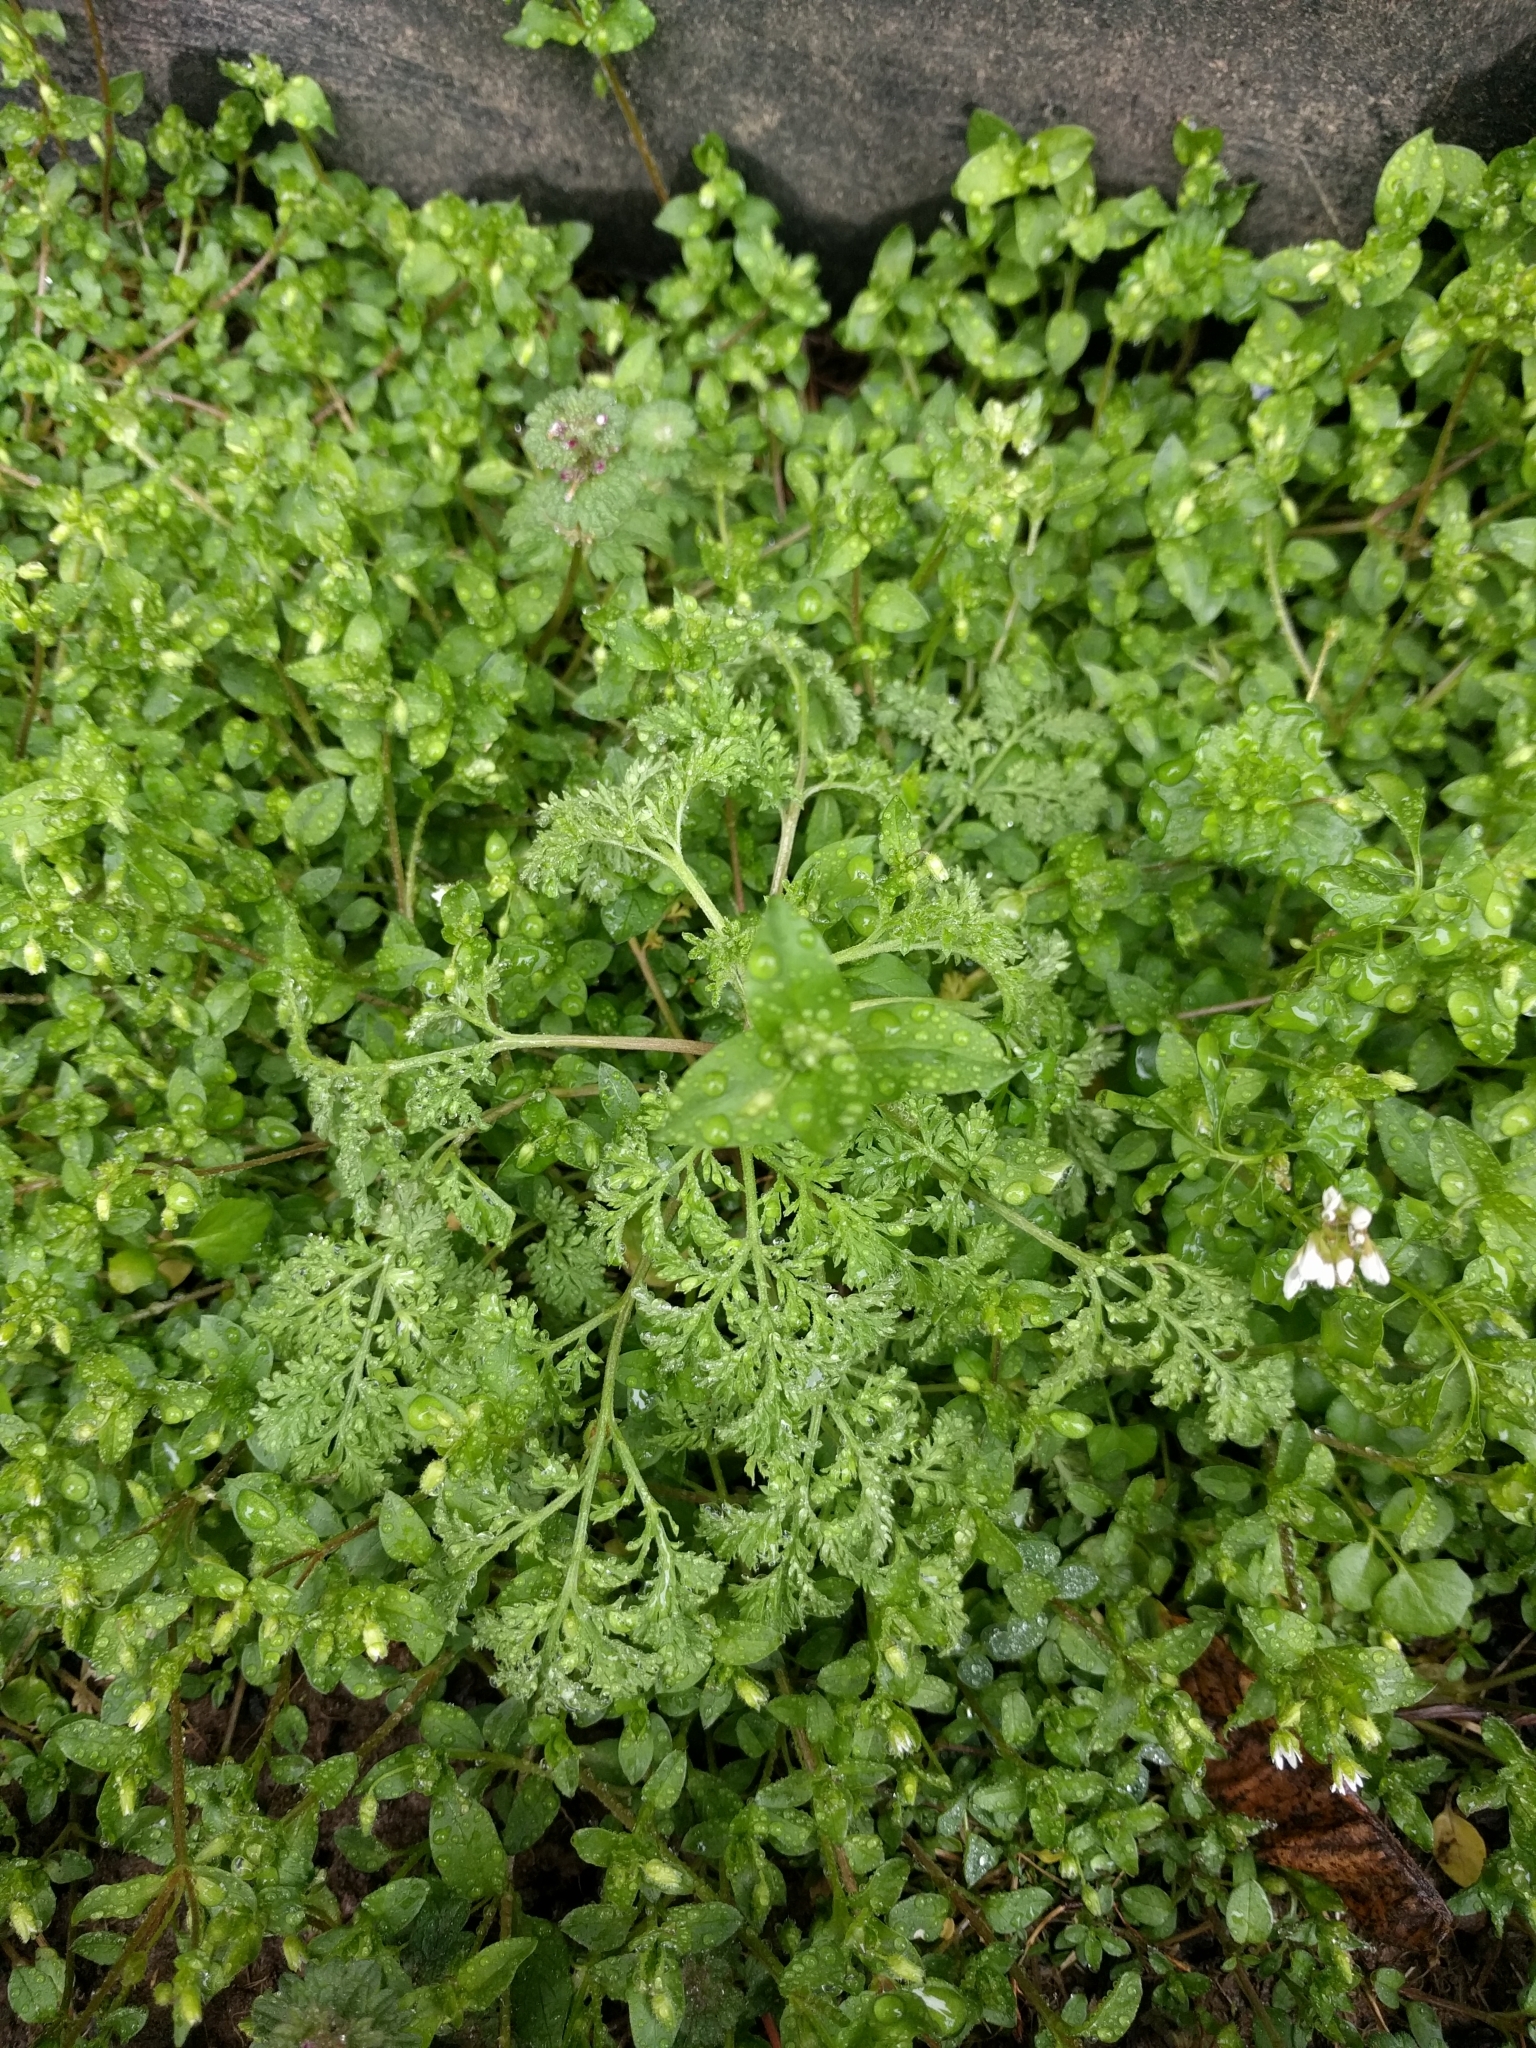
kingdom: Plantae
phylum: Tracheophyta
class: Magnoliopsida
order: Asterales
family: Asteraceae
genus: Artemisia
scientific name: Artemisia annua
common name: Sweet sagewort
